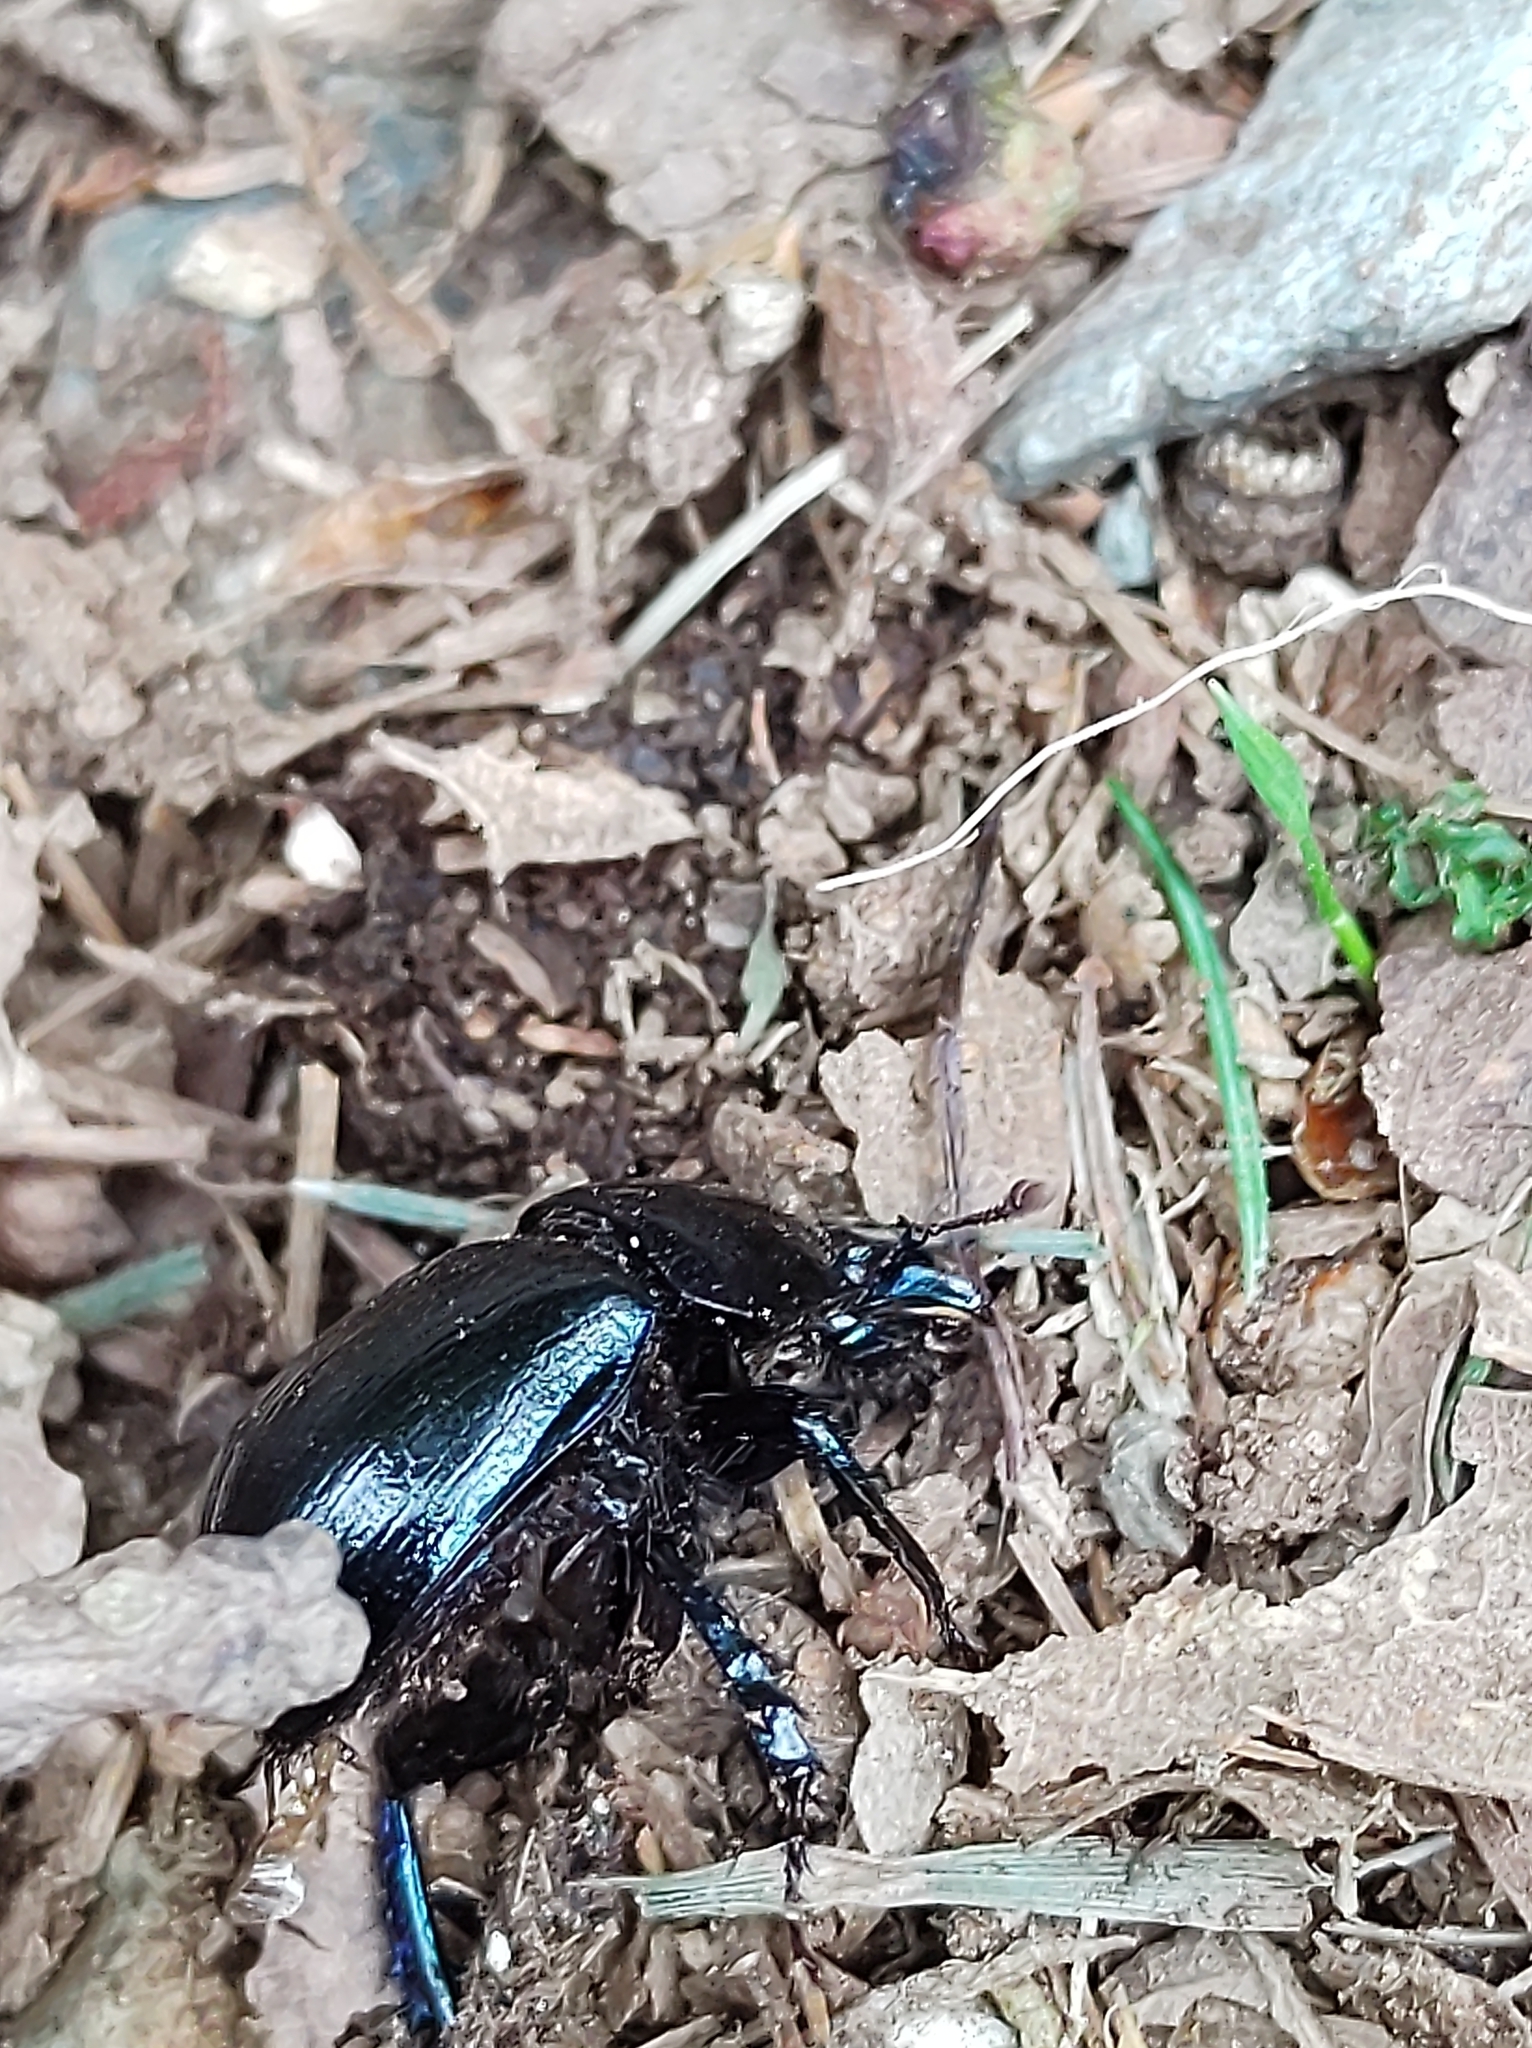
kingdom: Animalia
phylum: Arthropoda
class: Insecta
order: Coleoptera
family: Geotrupidae
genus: Anoplotrupes
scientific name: Anoplotrupes stercorosus
